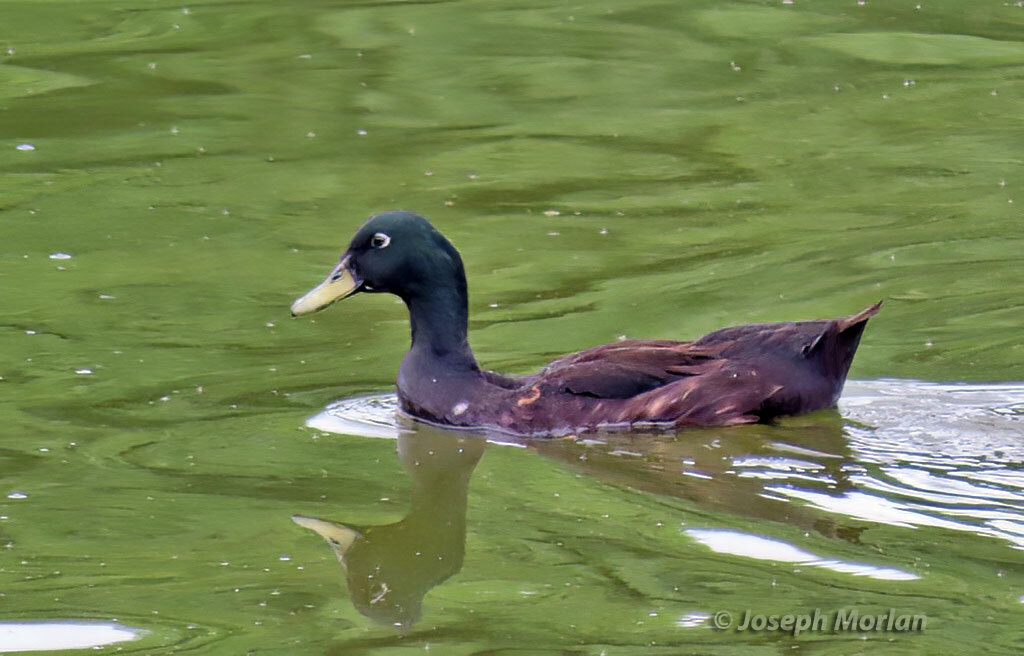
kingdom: Animalia
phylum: Chordata
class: Aves
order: Anseriformes
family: Anatidae
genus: Anas
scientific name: Anas platyrhynchos
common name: Mallard
